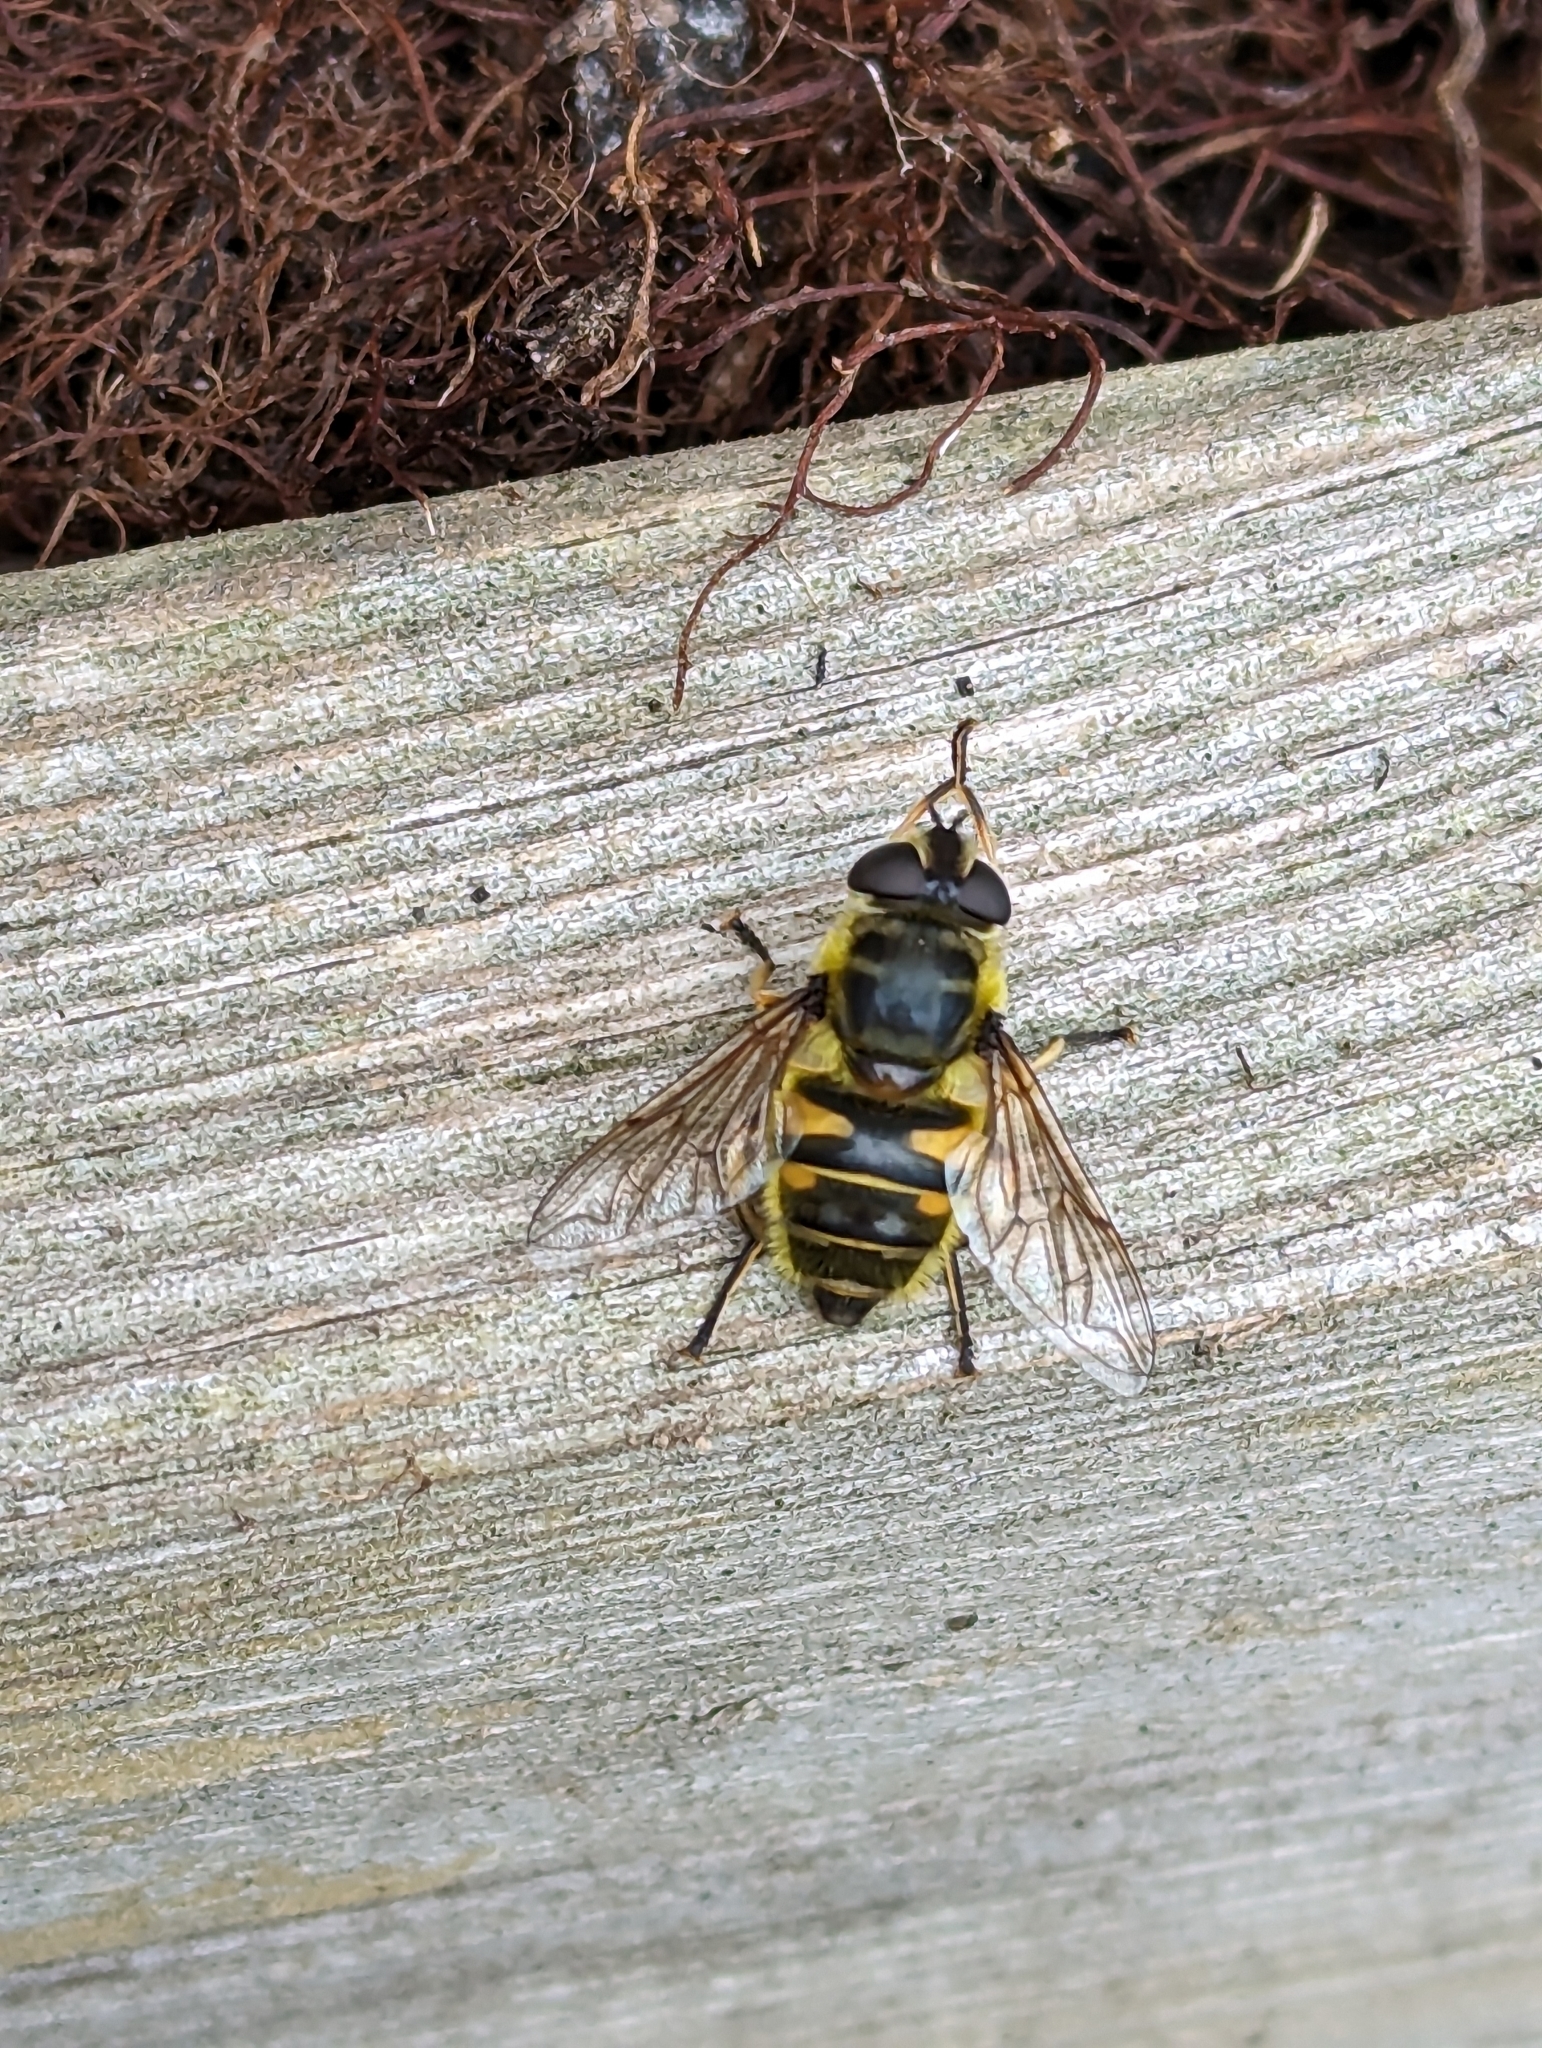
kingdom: Animalia
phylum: Arthropoda
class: Insecta
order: Diptera
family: Syrphidae
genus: Myathropa
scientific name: Myathropa florea
